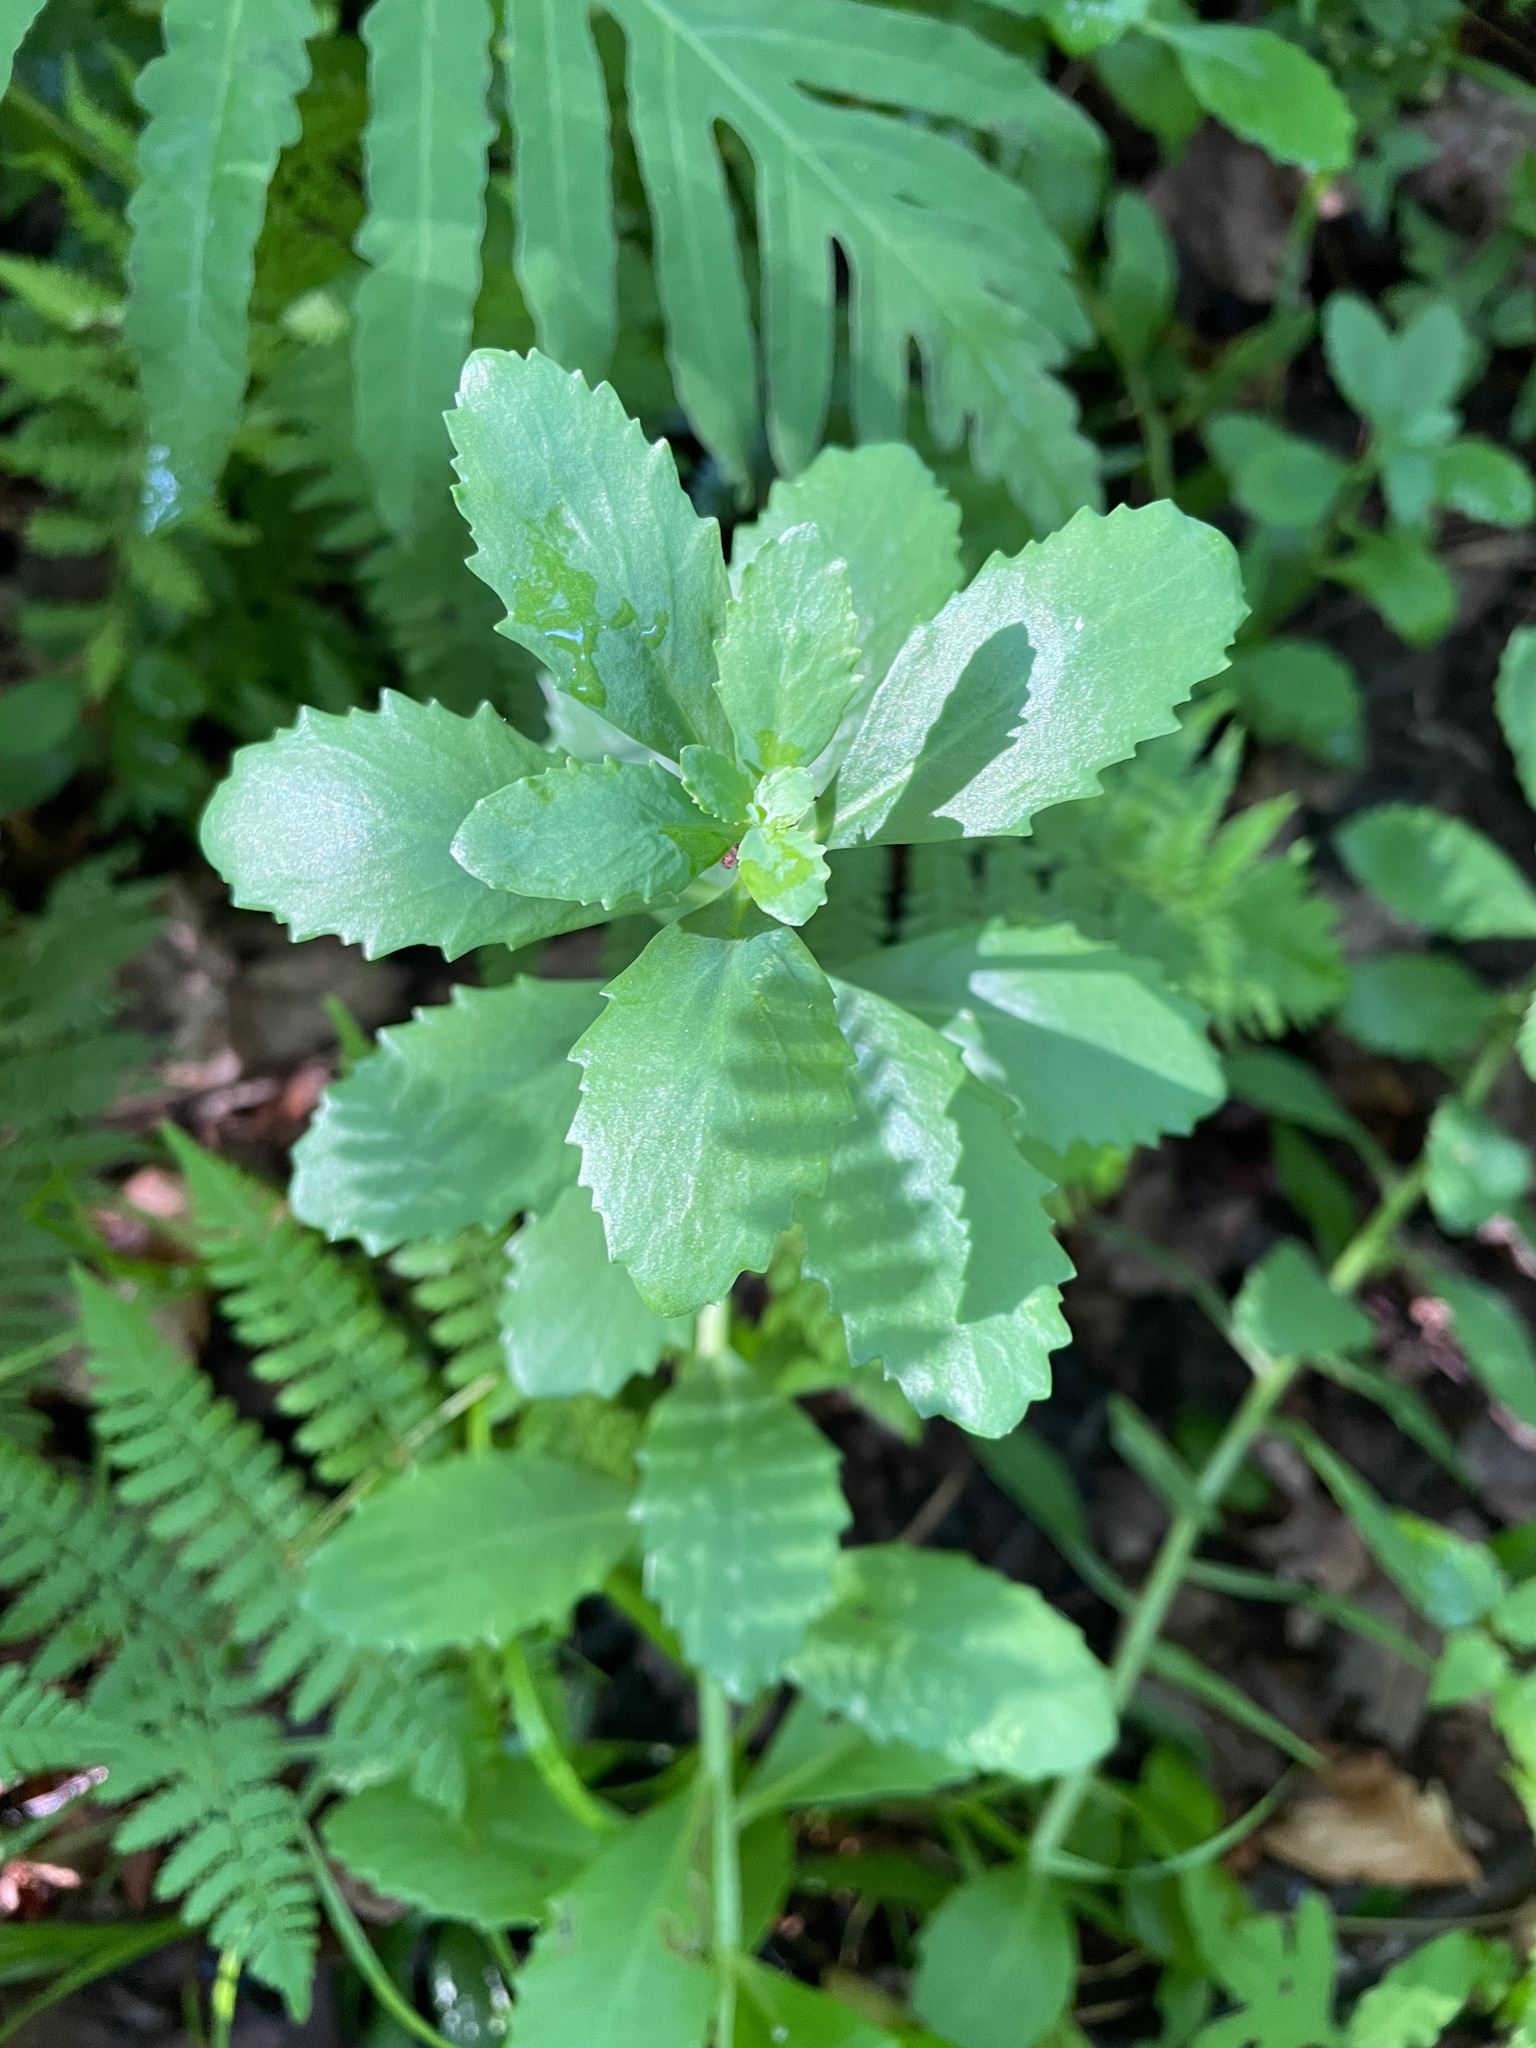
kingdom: Plantae
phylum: Tracheophyta
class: Magnoliopsida
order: Saxifragales
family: Crassulaceae
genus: Hylotelephium
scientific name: Hylotelephium telephium
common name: Live-forever
